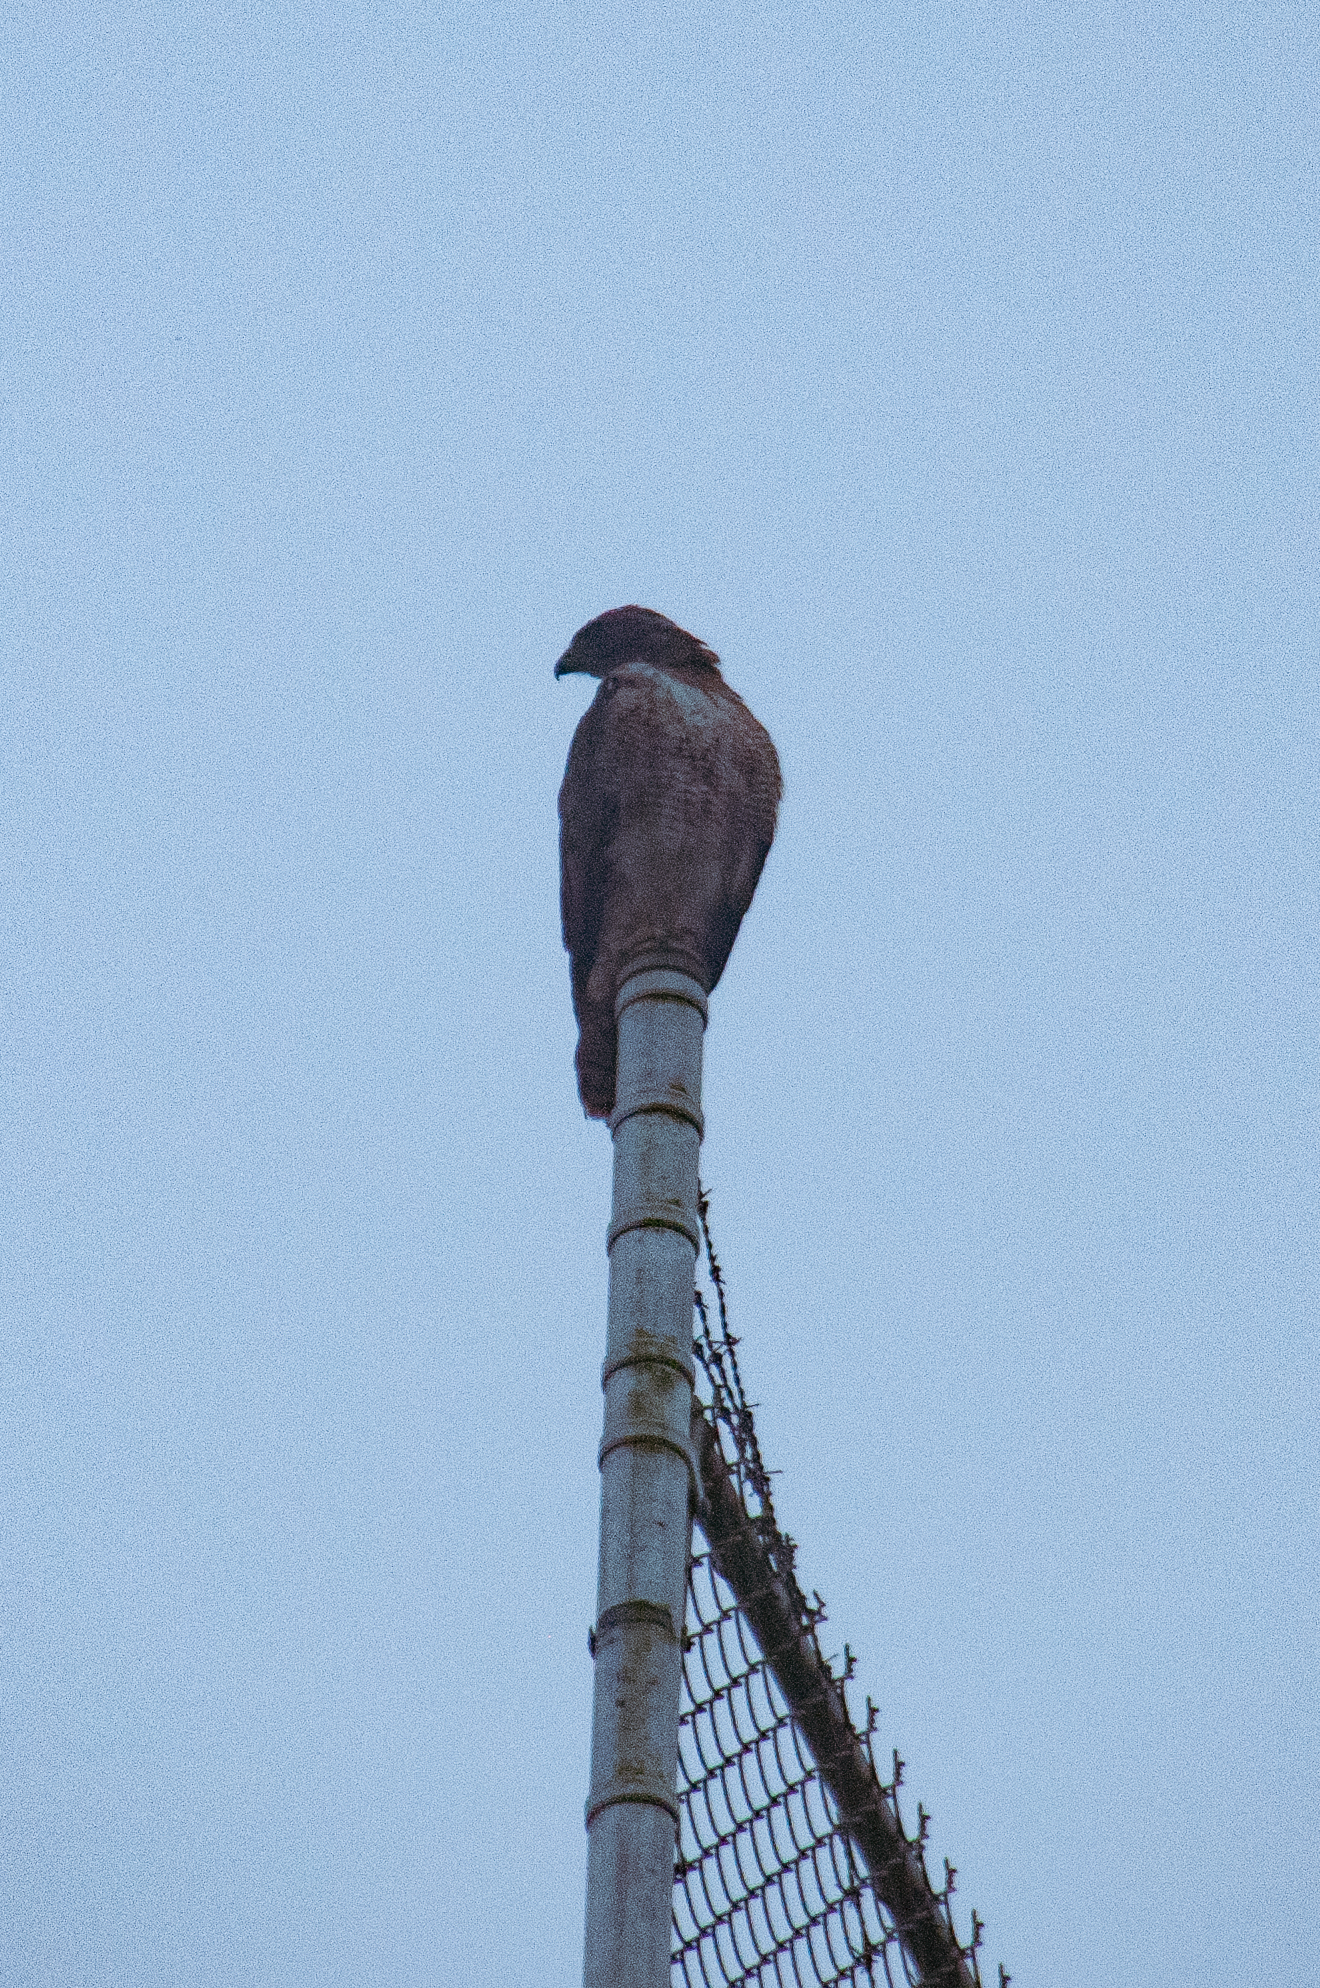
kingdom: Animalia
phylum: Chordata
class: Aves
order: Accipitriformes
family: Accipitridae
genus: Buteo
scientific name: Buteo jamaicensis
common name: Red-tailed hawk
